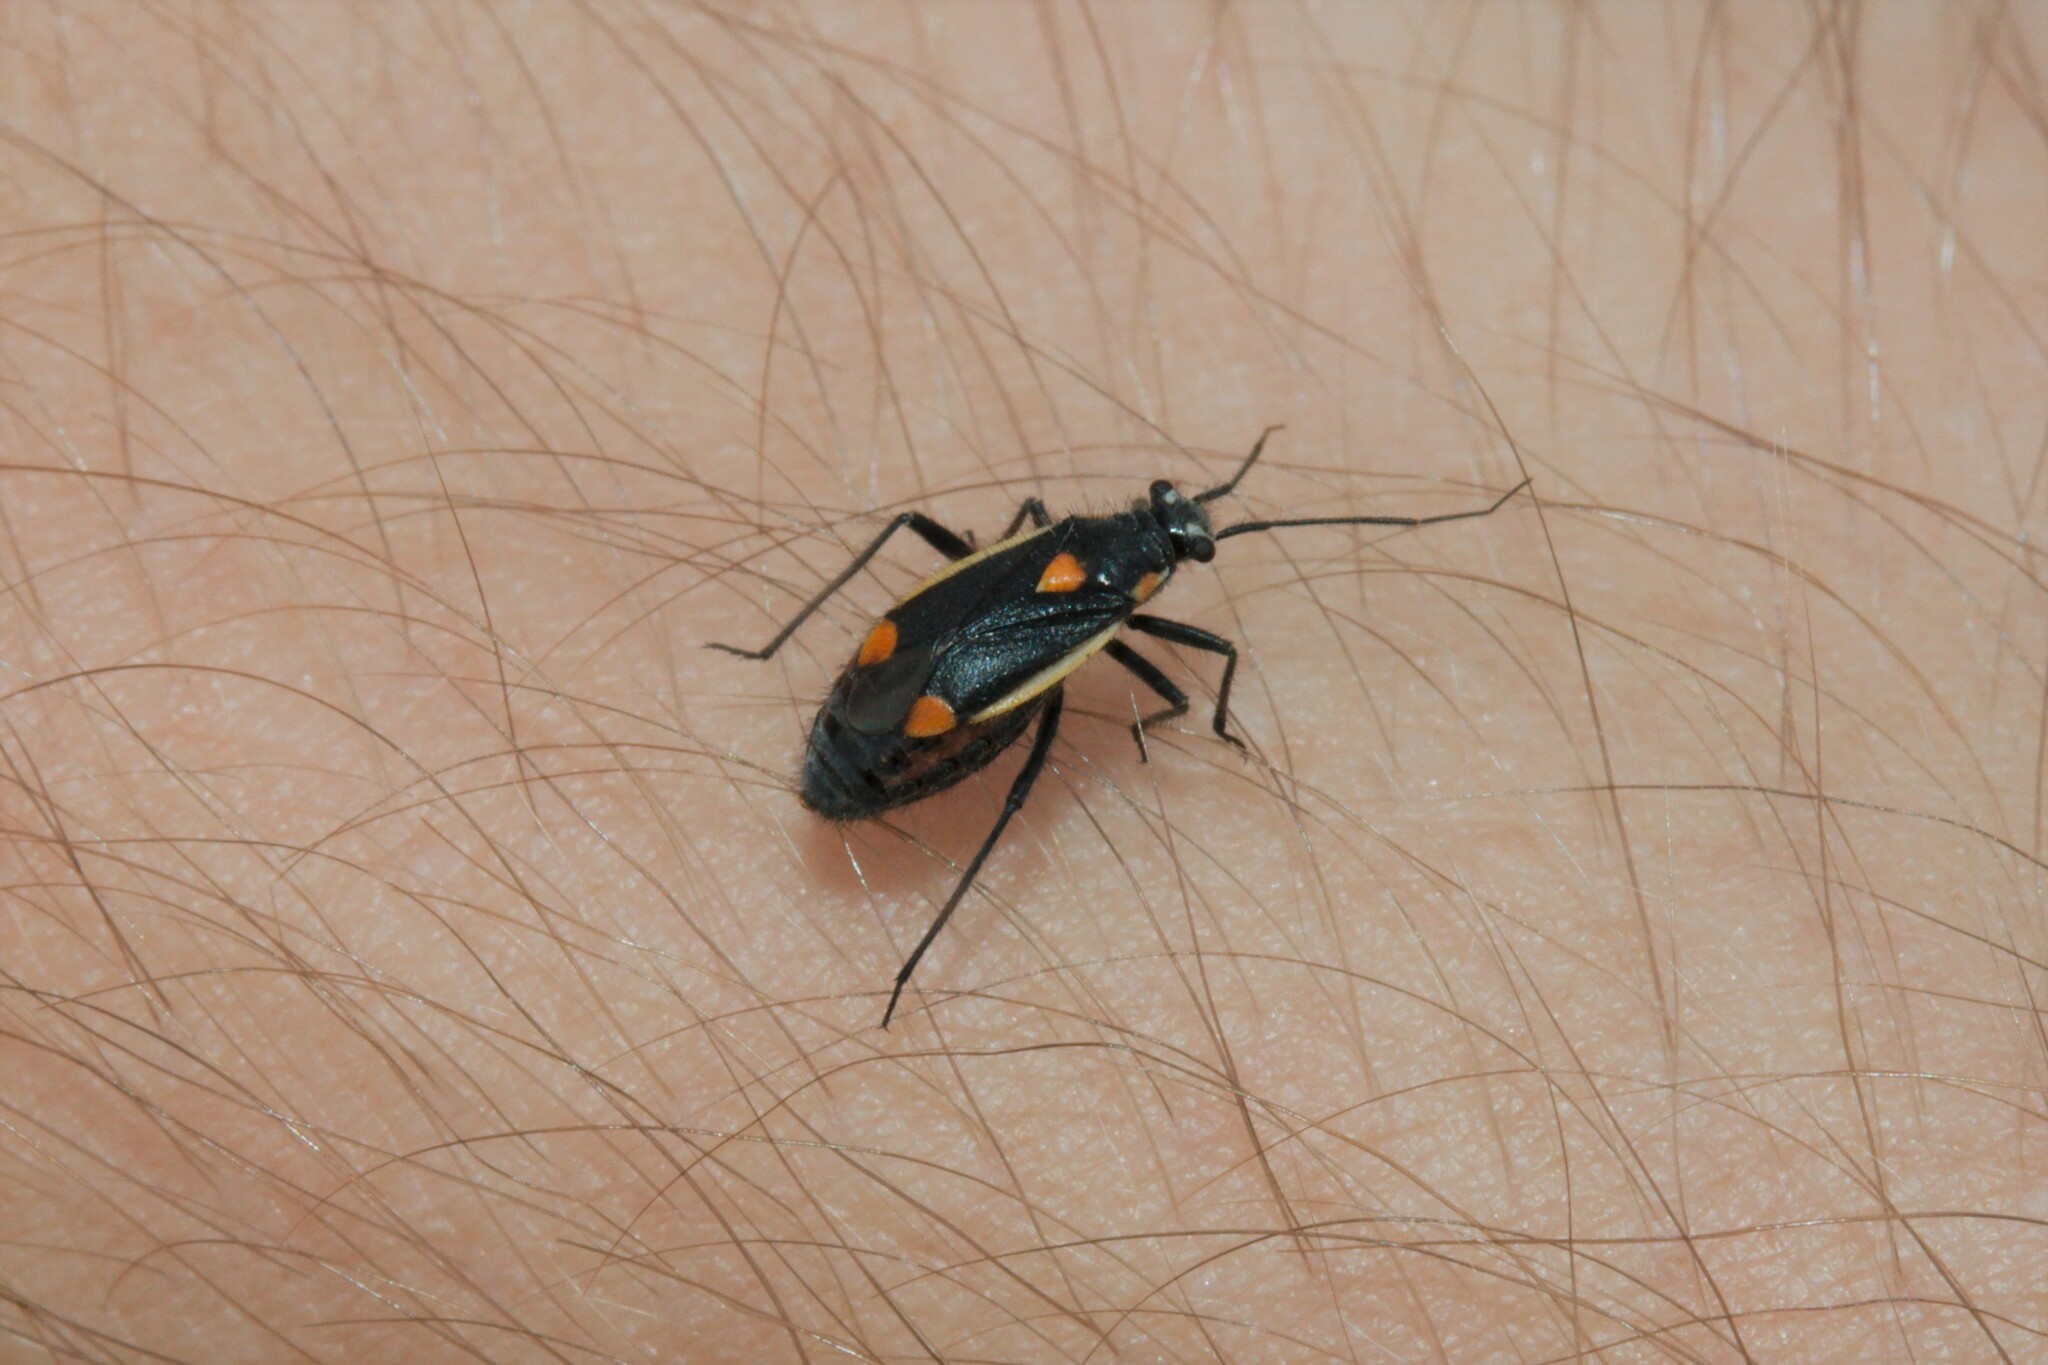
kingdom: Animalia
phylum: Arthropoda
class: Insecta
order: Hemiptera
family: Miridae
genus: Capsodes
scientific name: Capsodes gothicus
